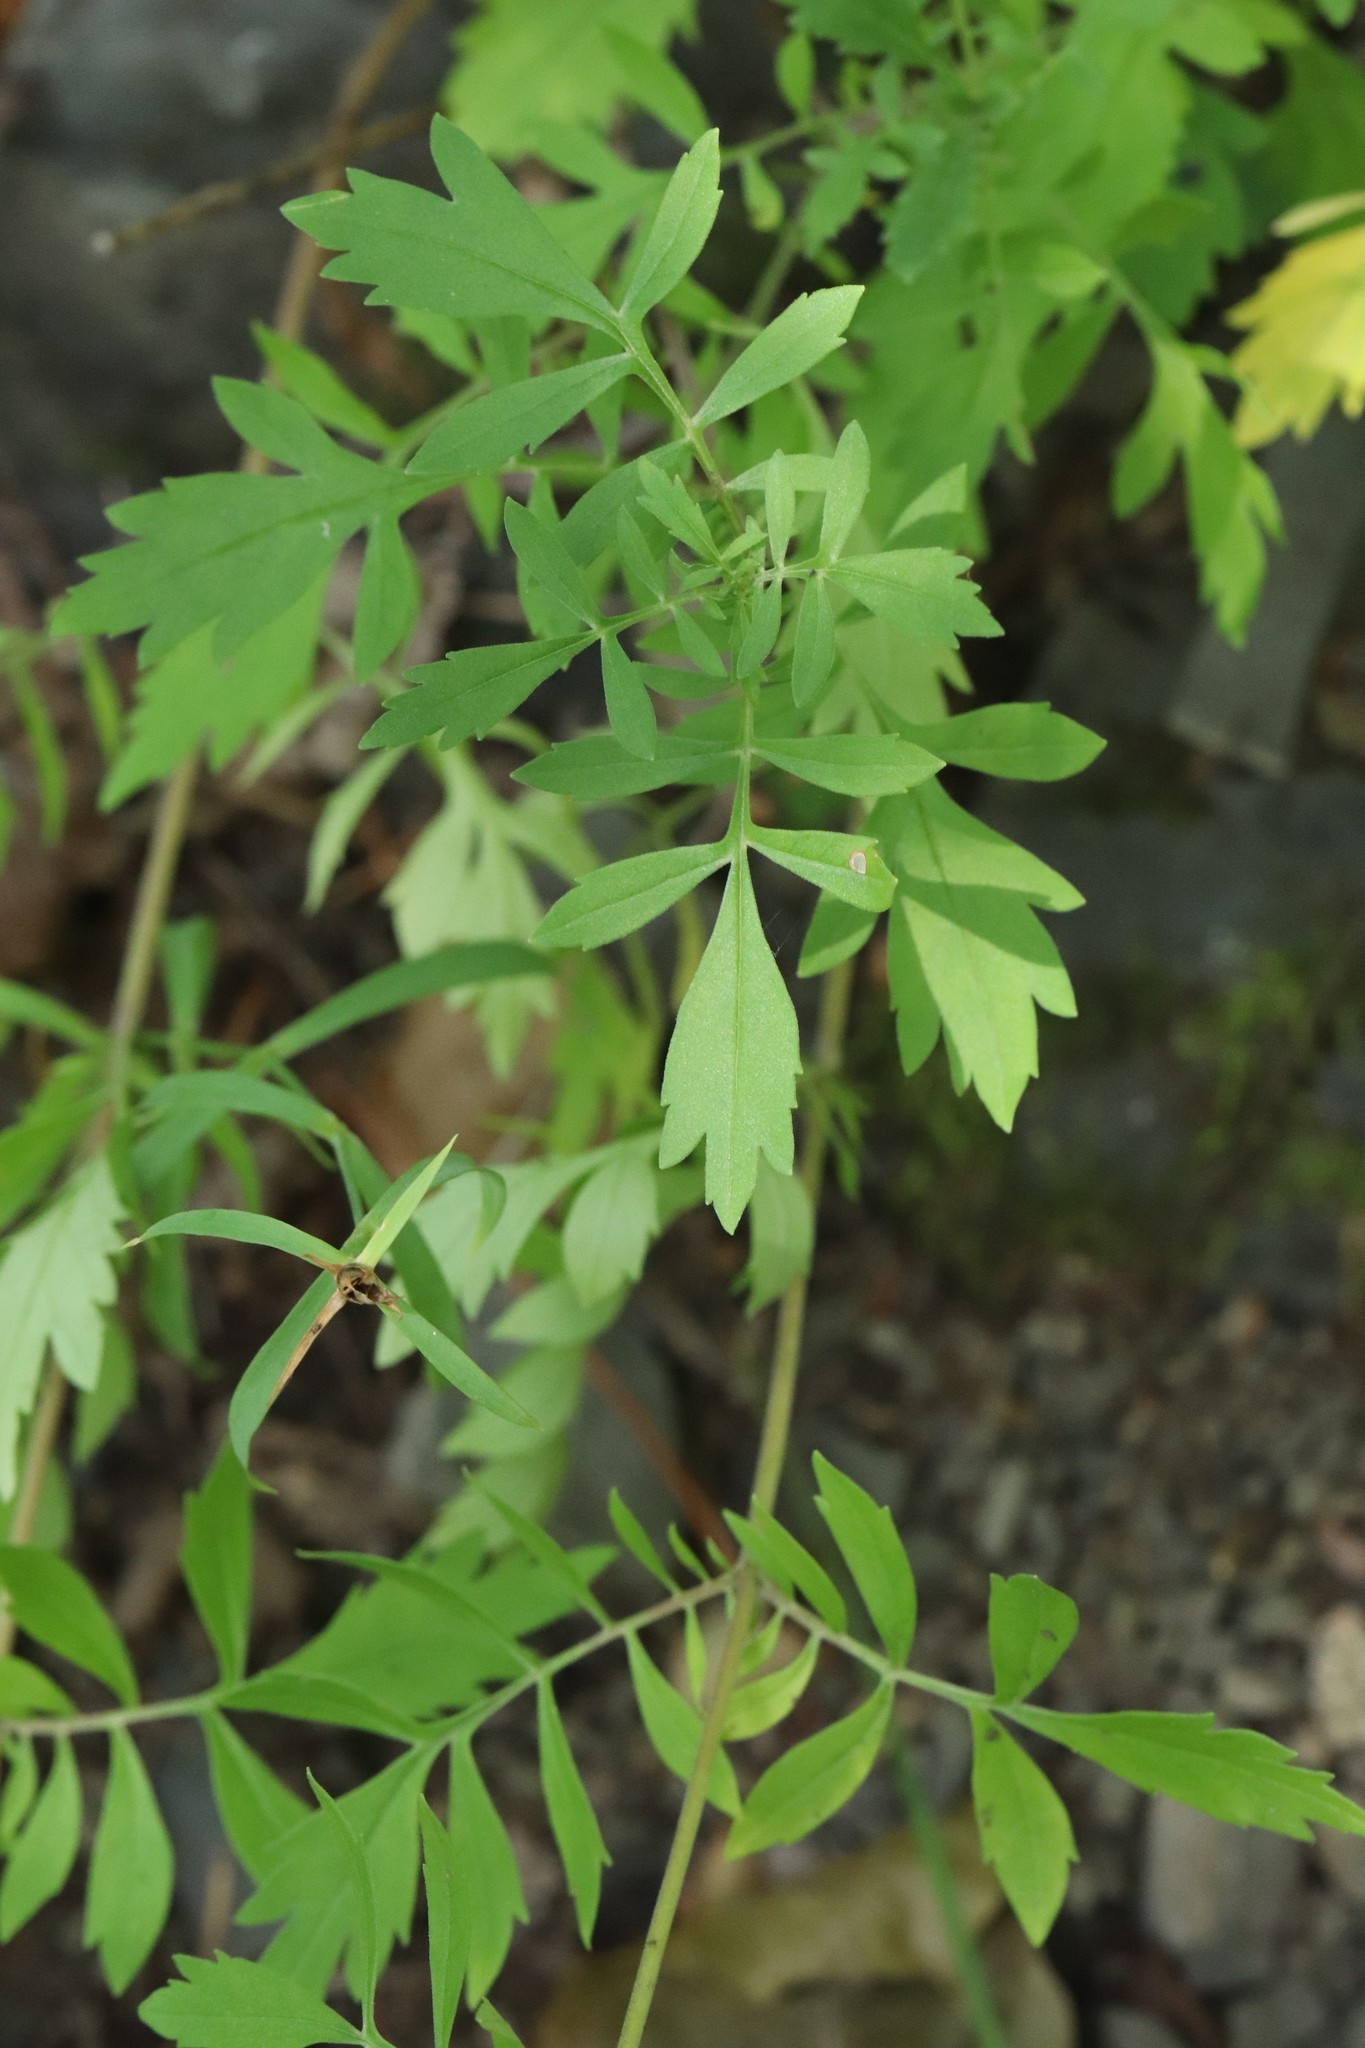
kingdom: Plantae
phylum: Tracheophyta
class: Magnoliopsida
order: Dipsacales
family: Caprifoliaceae
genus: Patrinia
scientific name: Patrinia rupestris
